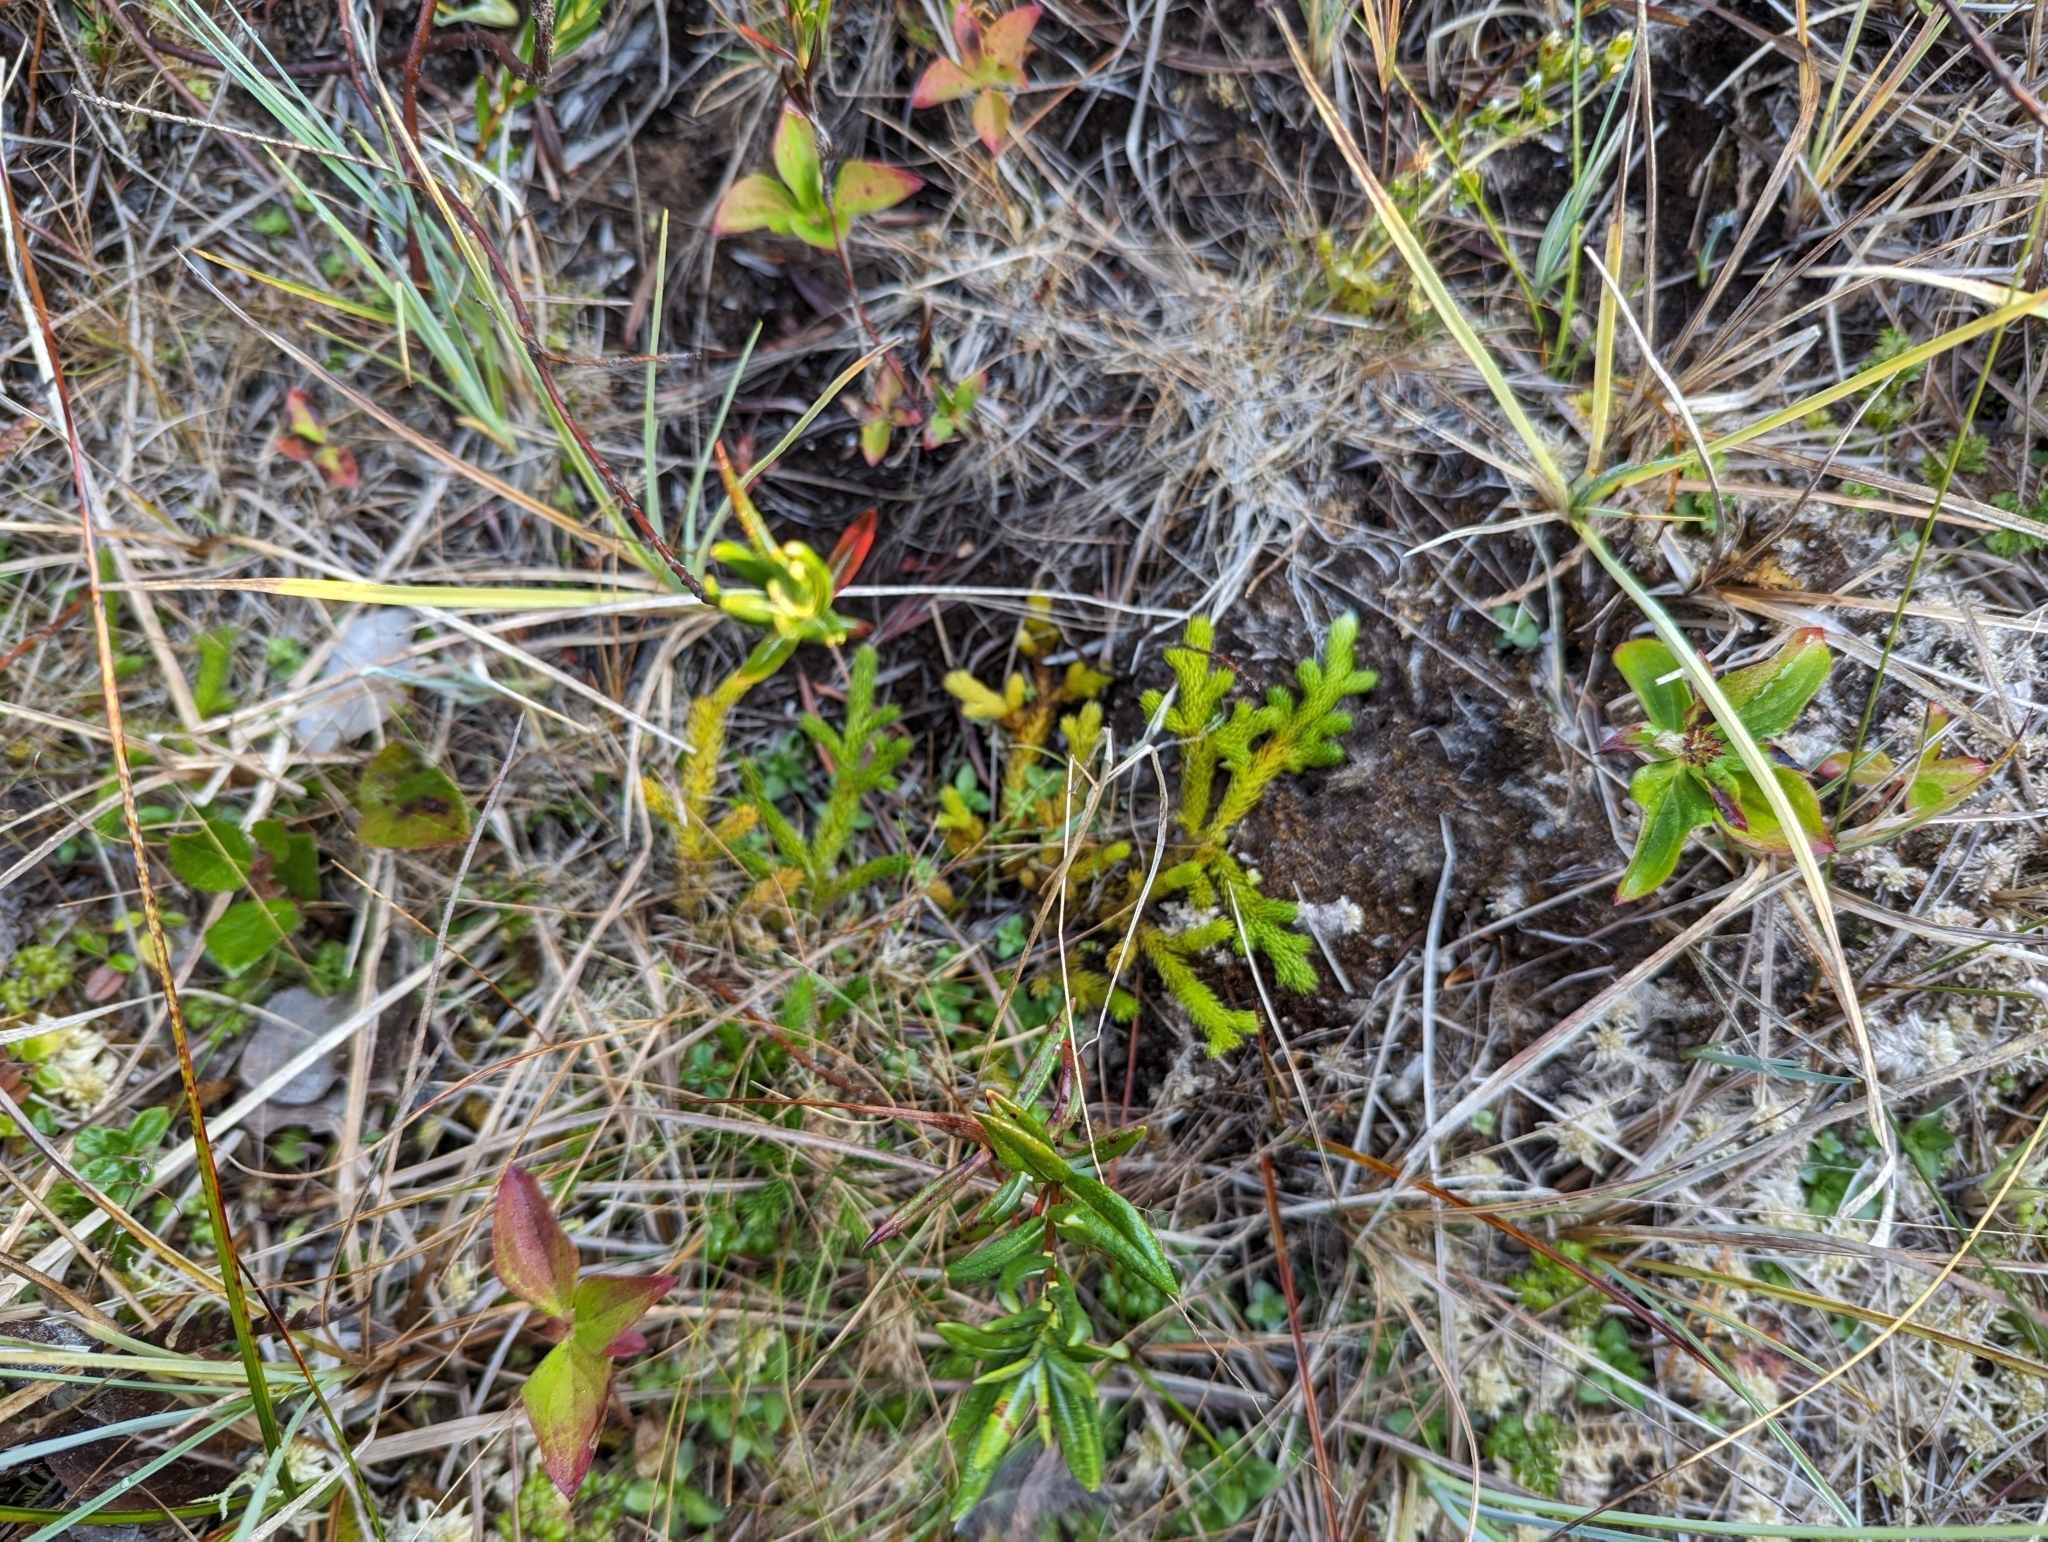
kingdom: Plantae
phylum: Tracheophyta
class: Lycopodiopsida
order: Lycopodiales
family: Lycopodiaceae
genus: Lycopodium
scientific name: Lycopodium clavatum
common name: Stag's-horn clubmoss
